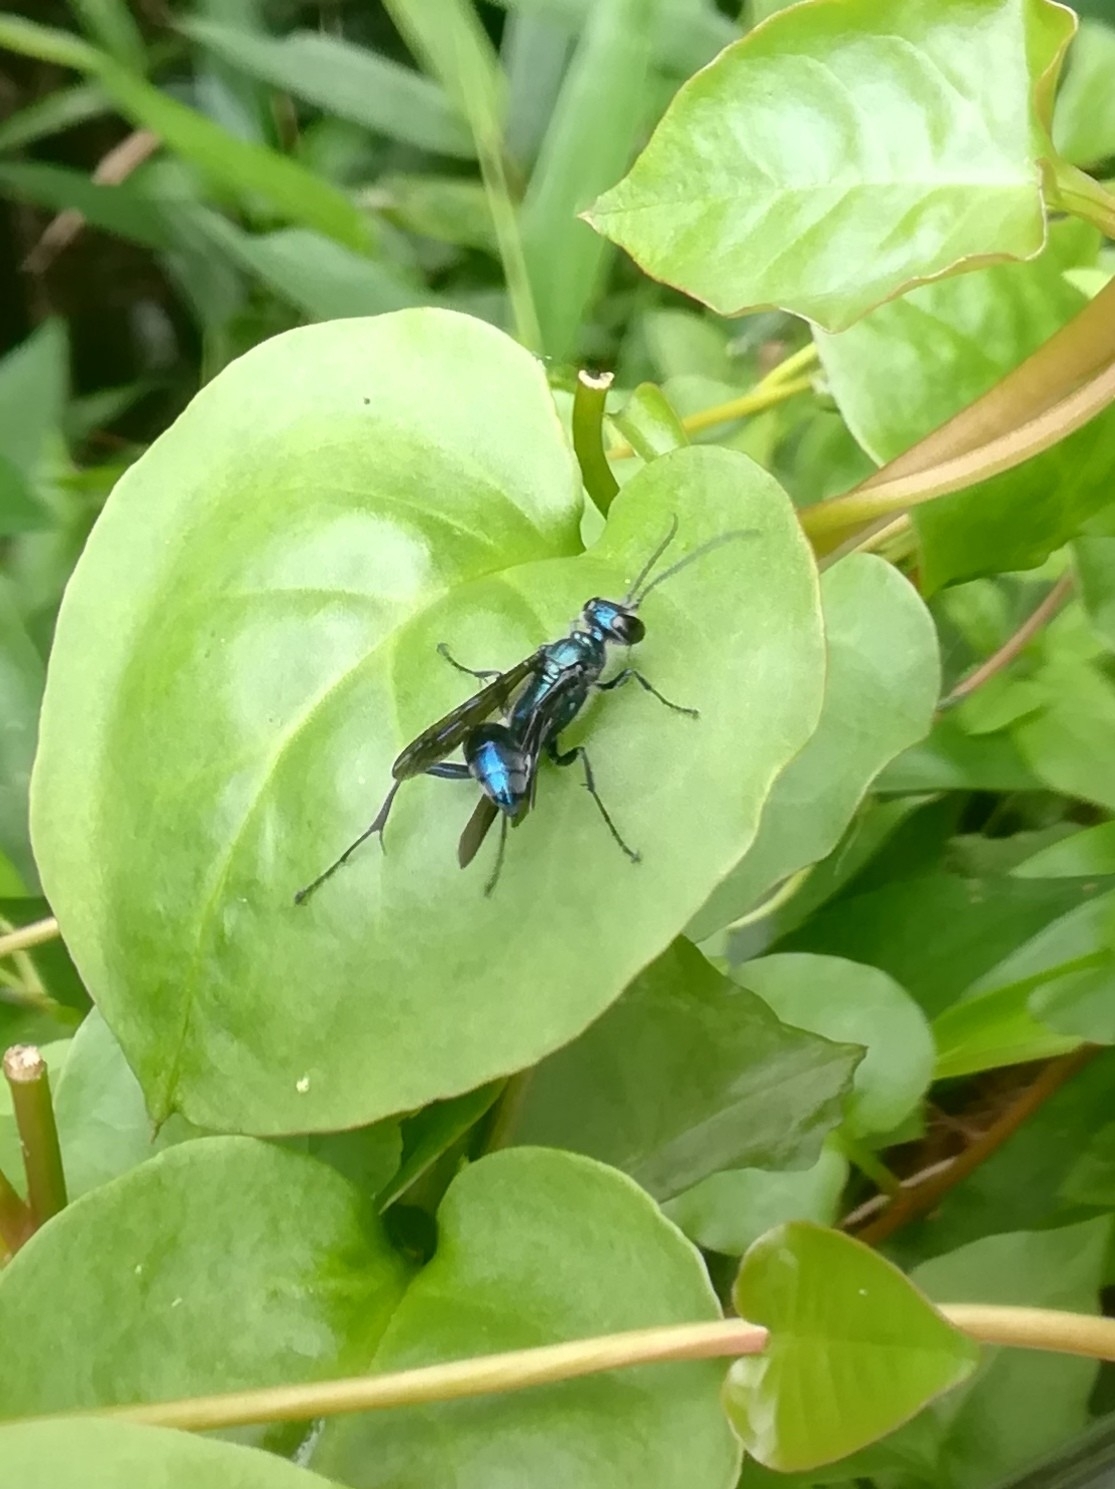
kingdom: Animalia
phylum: Arthropoda
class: Insecta
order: Hymenoptera
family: Sphecidae
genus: Chalybion
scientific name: Chalybion japonicum
